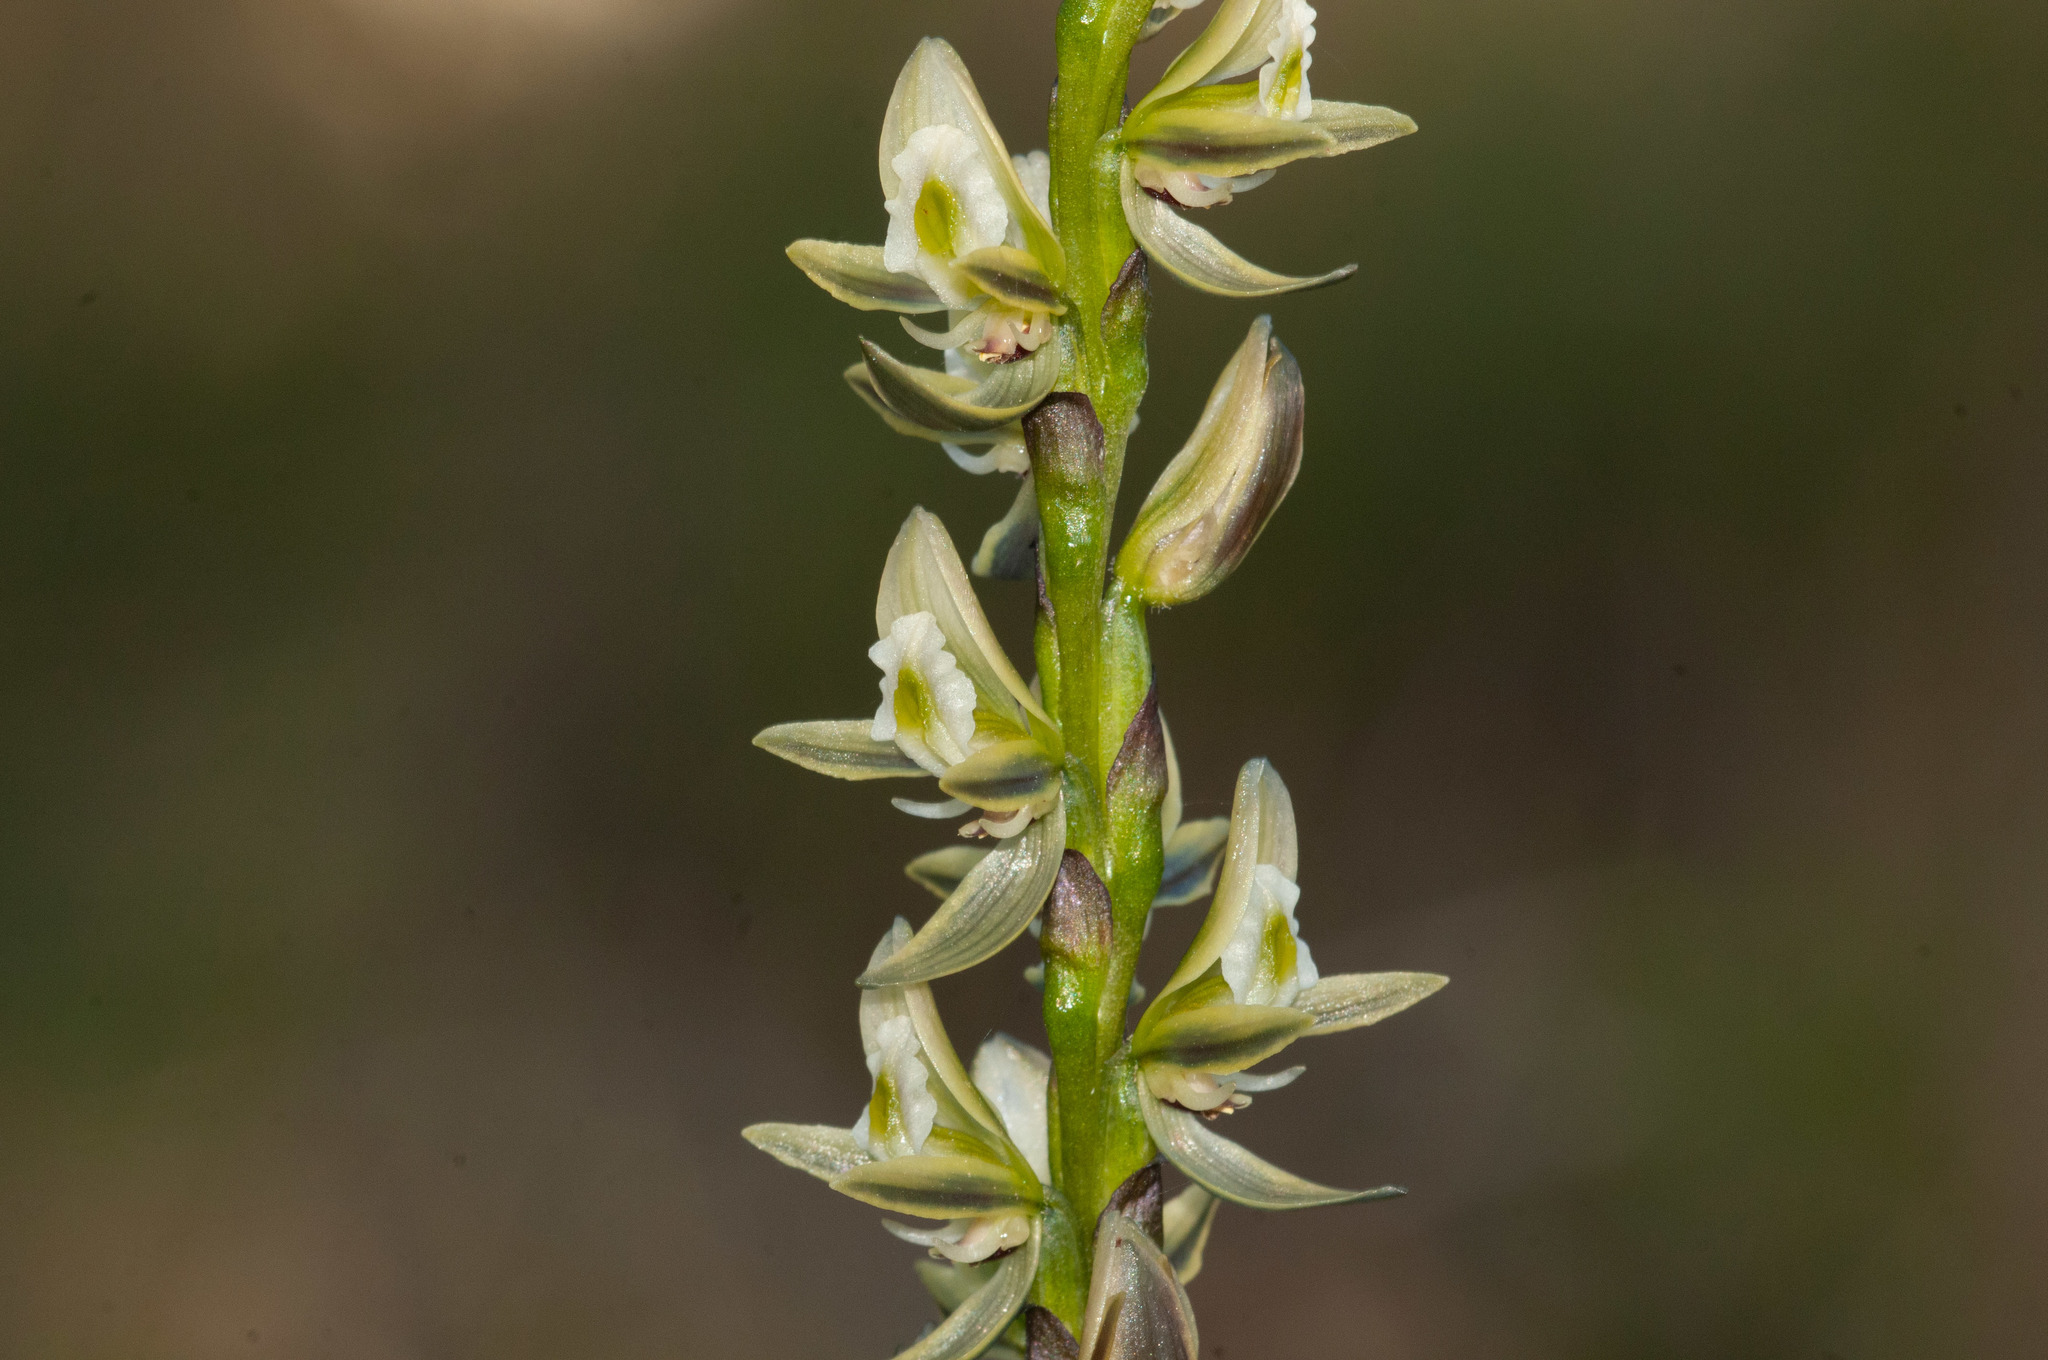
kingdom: Plantae
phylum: Tracheophyta
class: Liliopsida
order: Asparagales
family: Orchidaceae
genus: Prasophyllum
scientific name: Prasophyllum elatum
